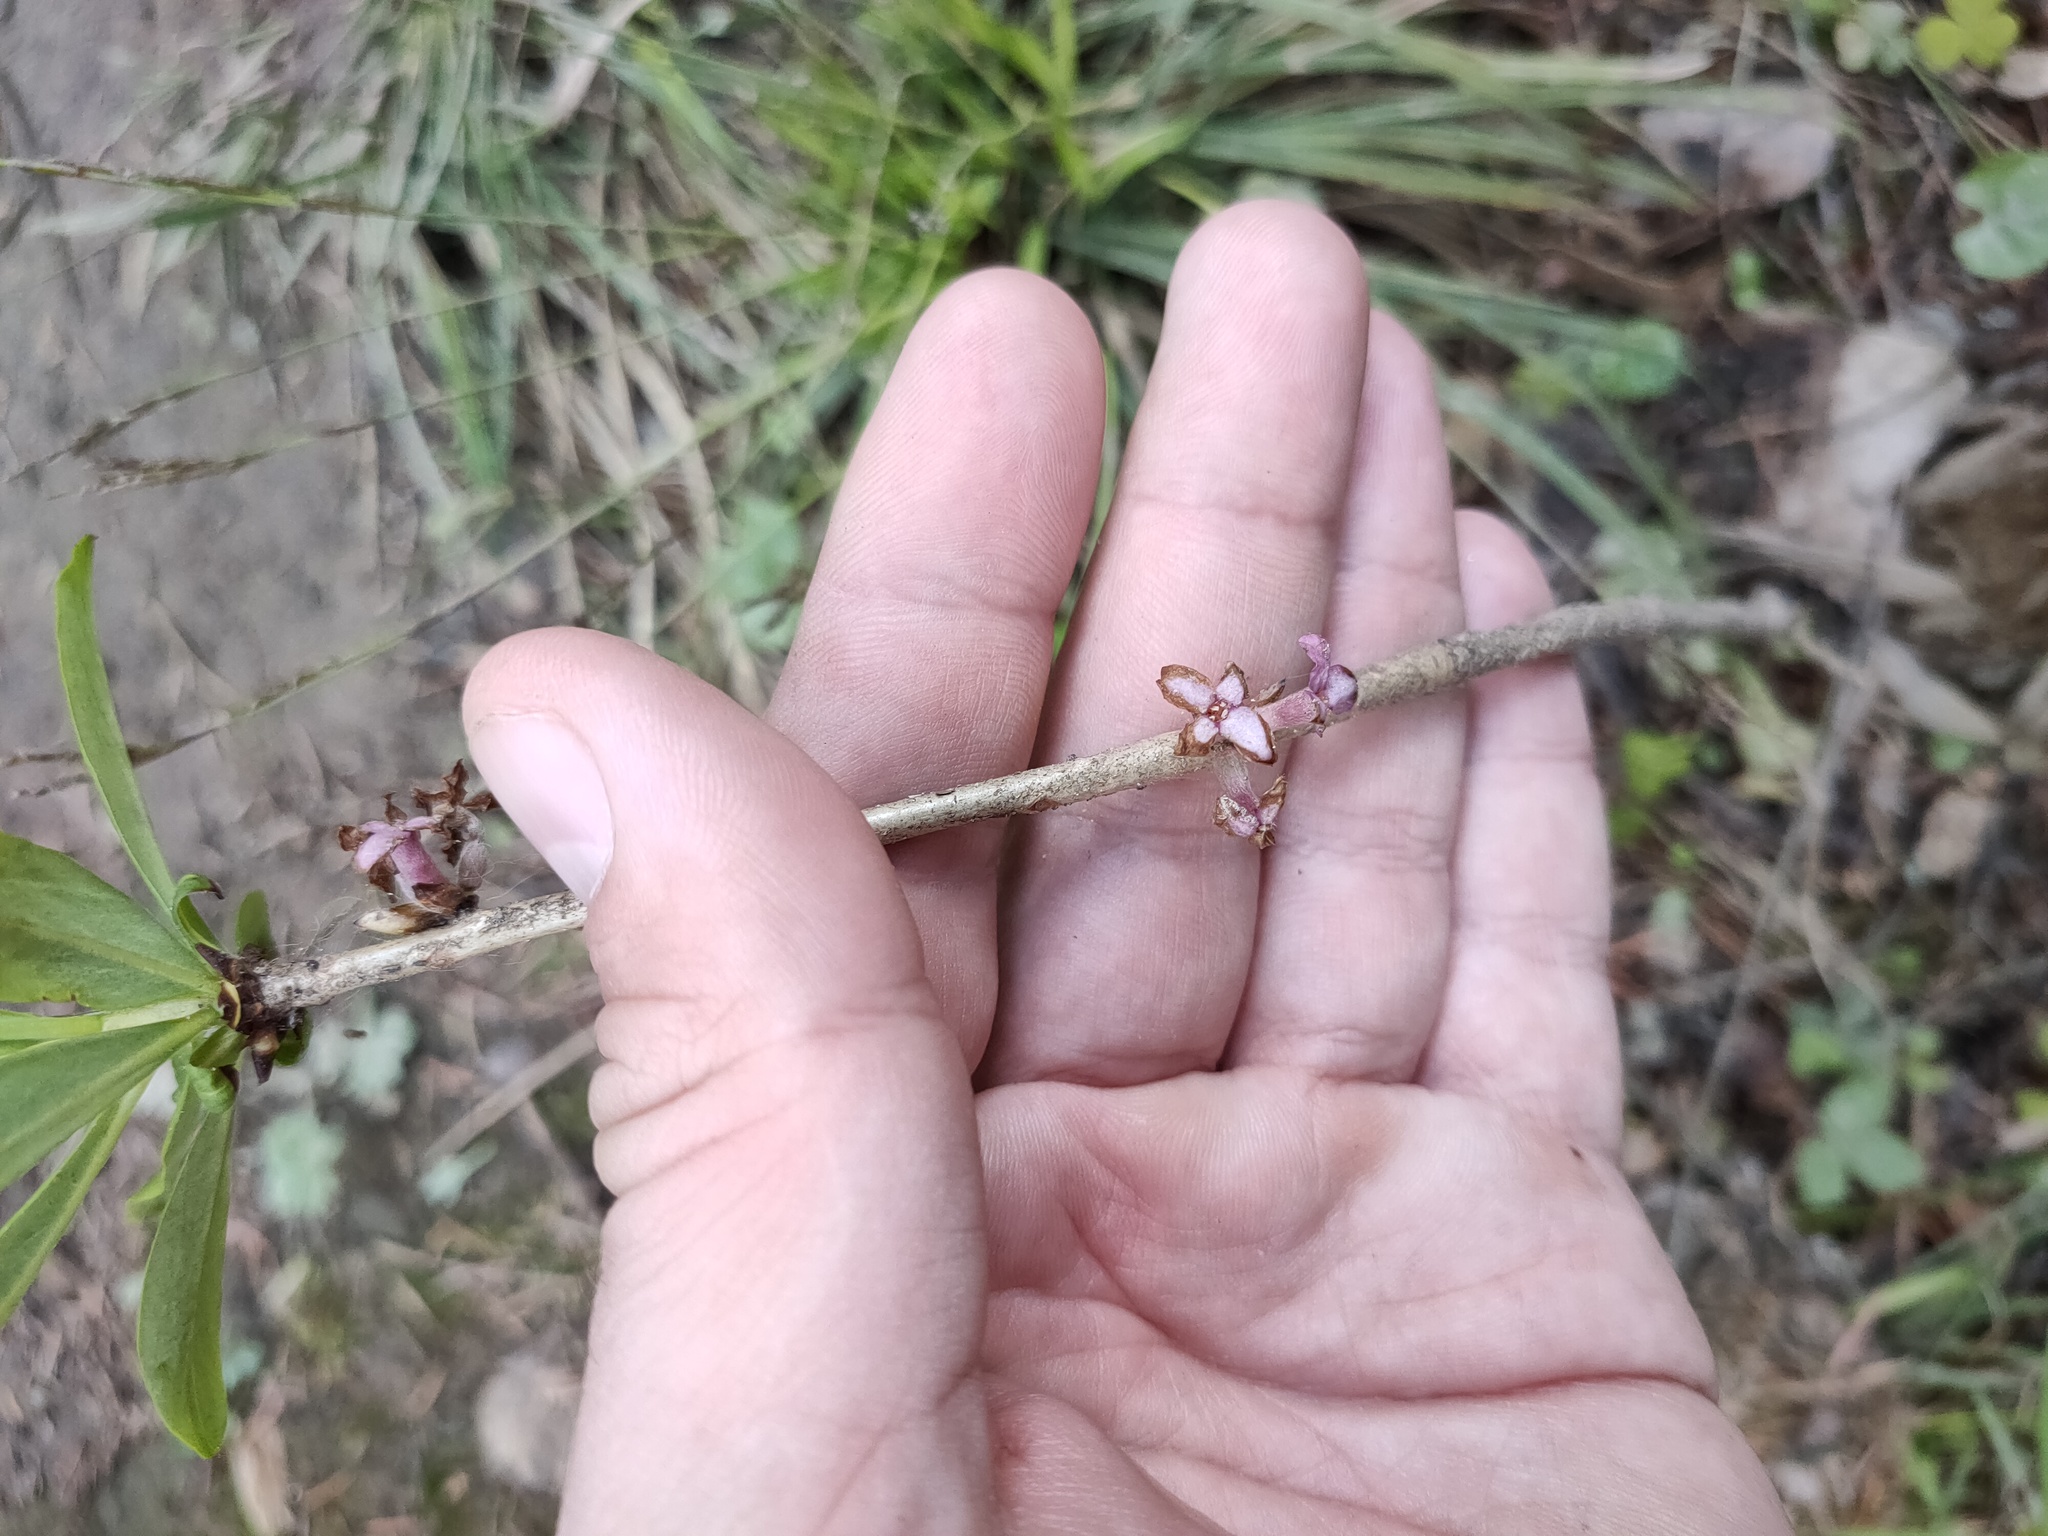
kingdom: Plantae
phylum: Tracheophyta
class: Magnoliopsida
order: Malvales
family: Thymelaeaceae
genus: Daphne
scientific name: Daphne mezereum
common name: Mezereon
